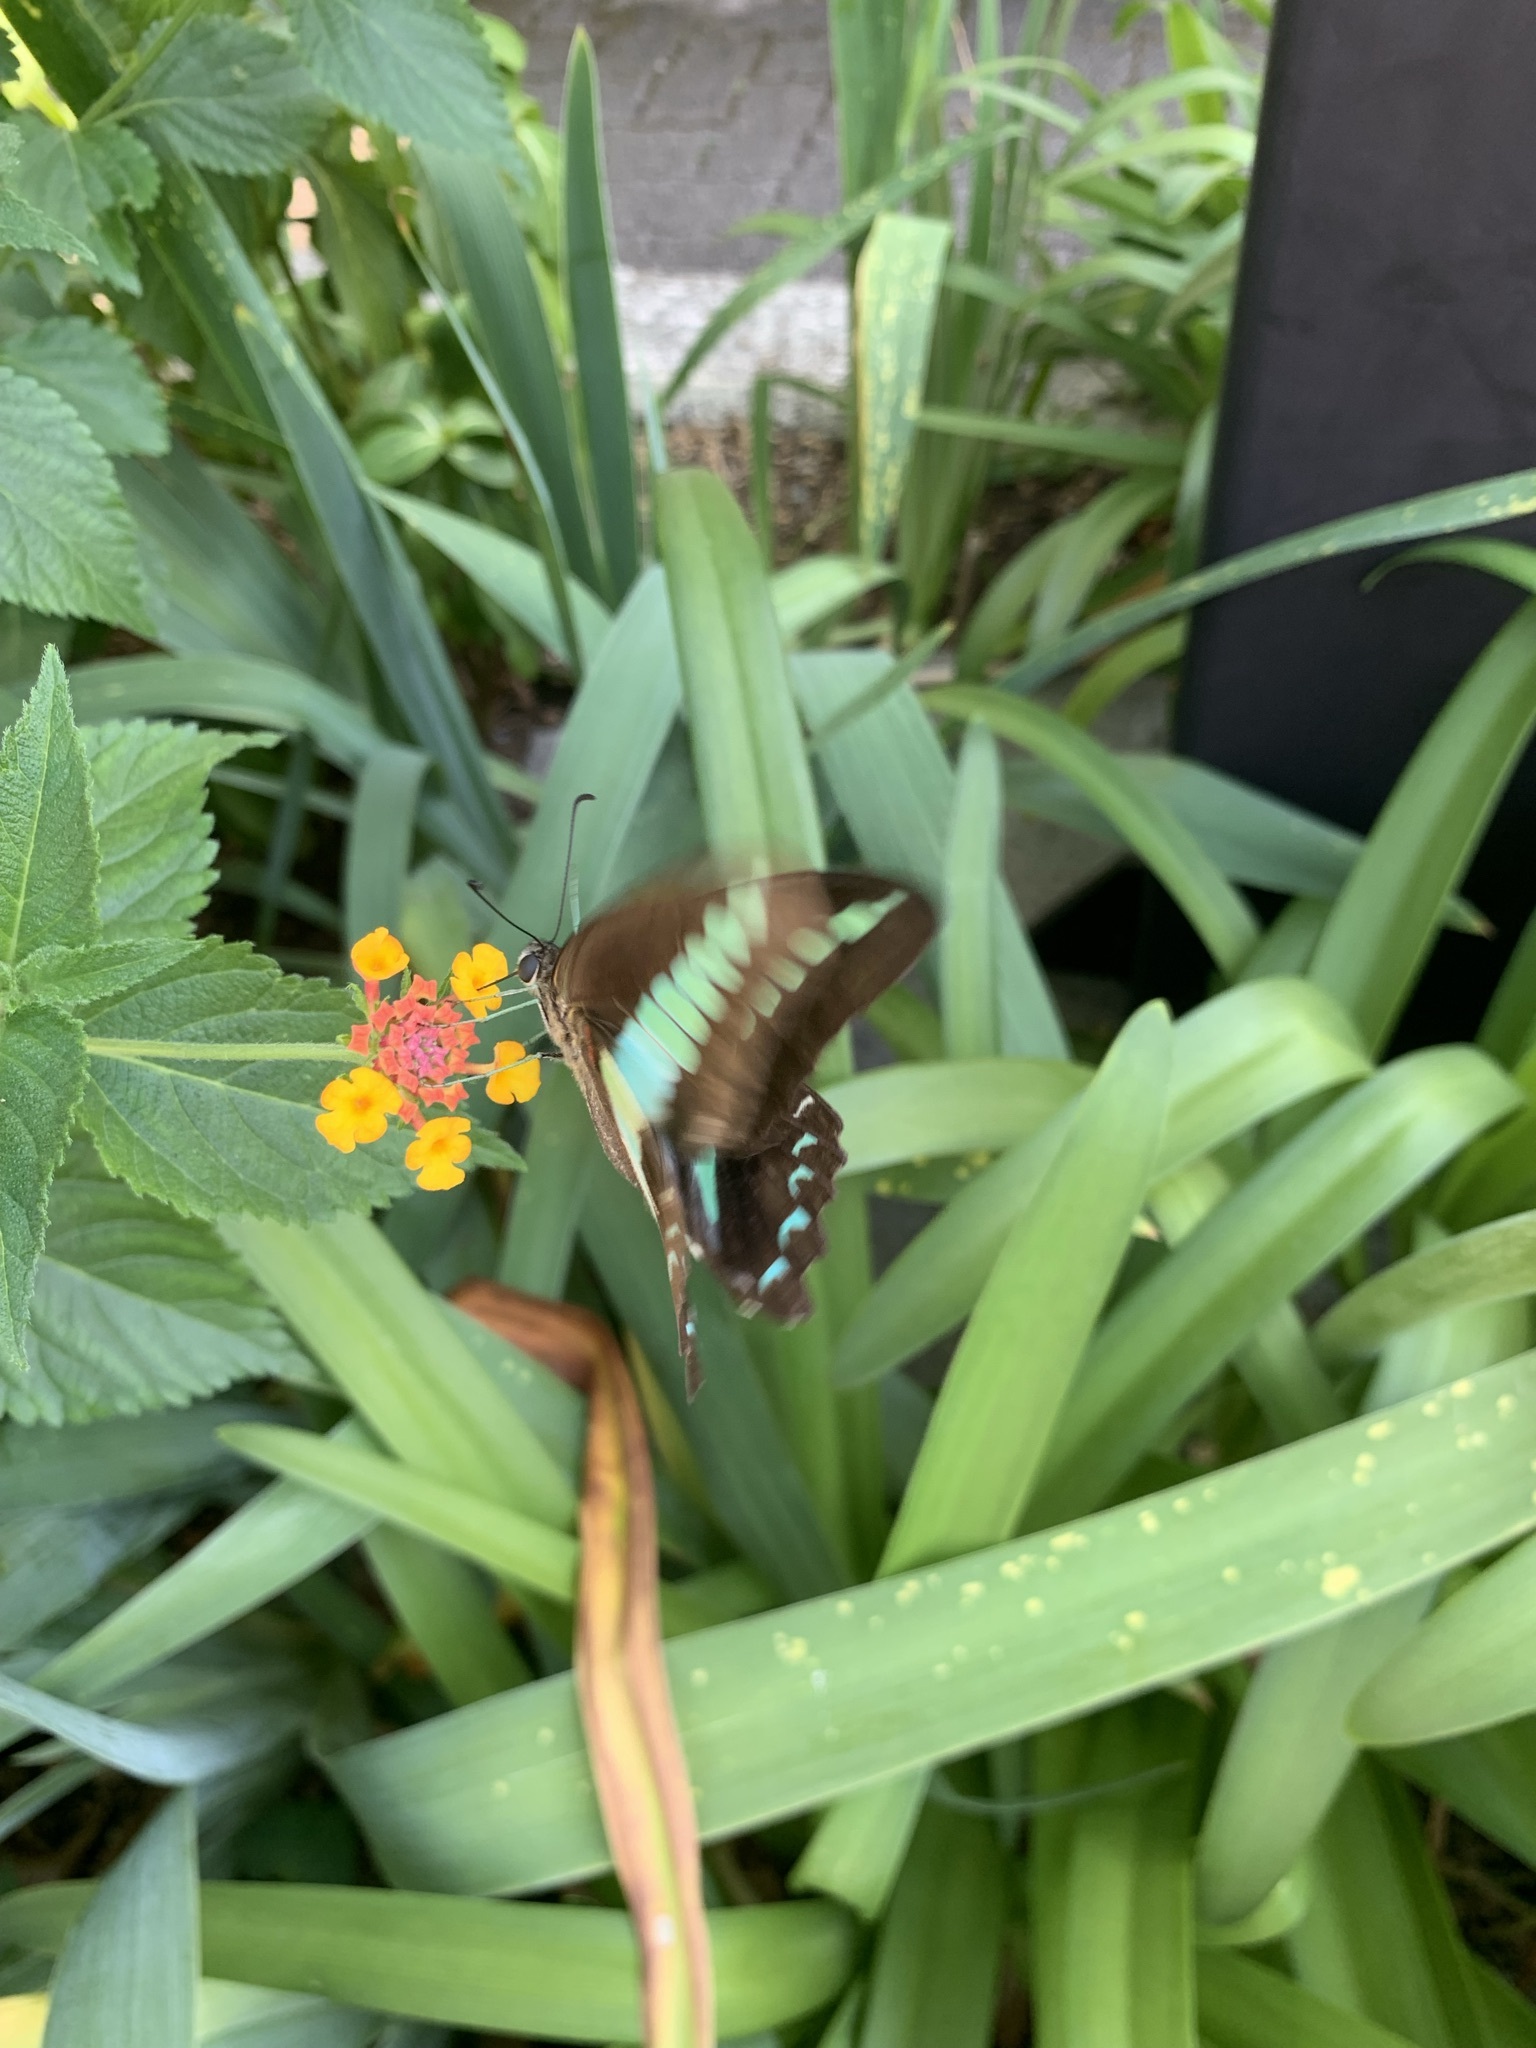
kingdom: Fungi
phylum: Ascomycota
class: Sordariomycetes
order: Microascales
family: Microascaceae
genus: Graphium
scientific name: Graphium sarpedon
